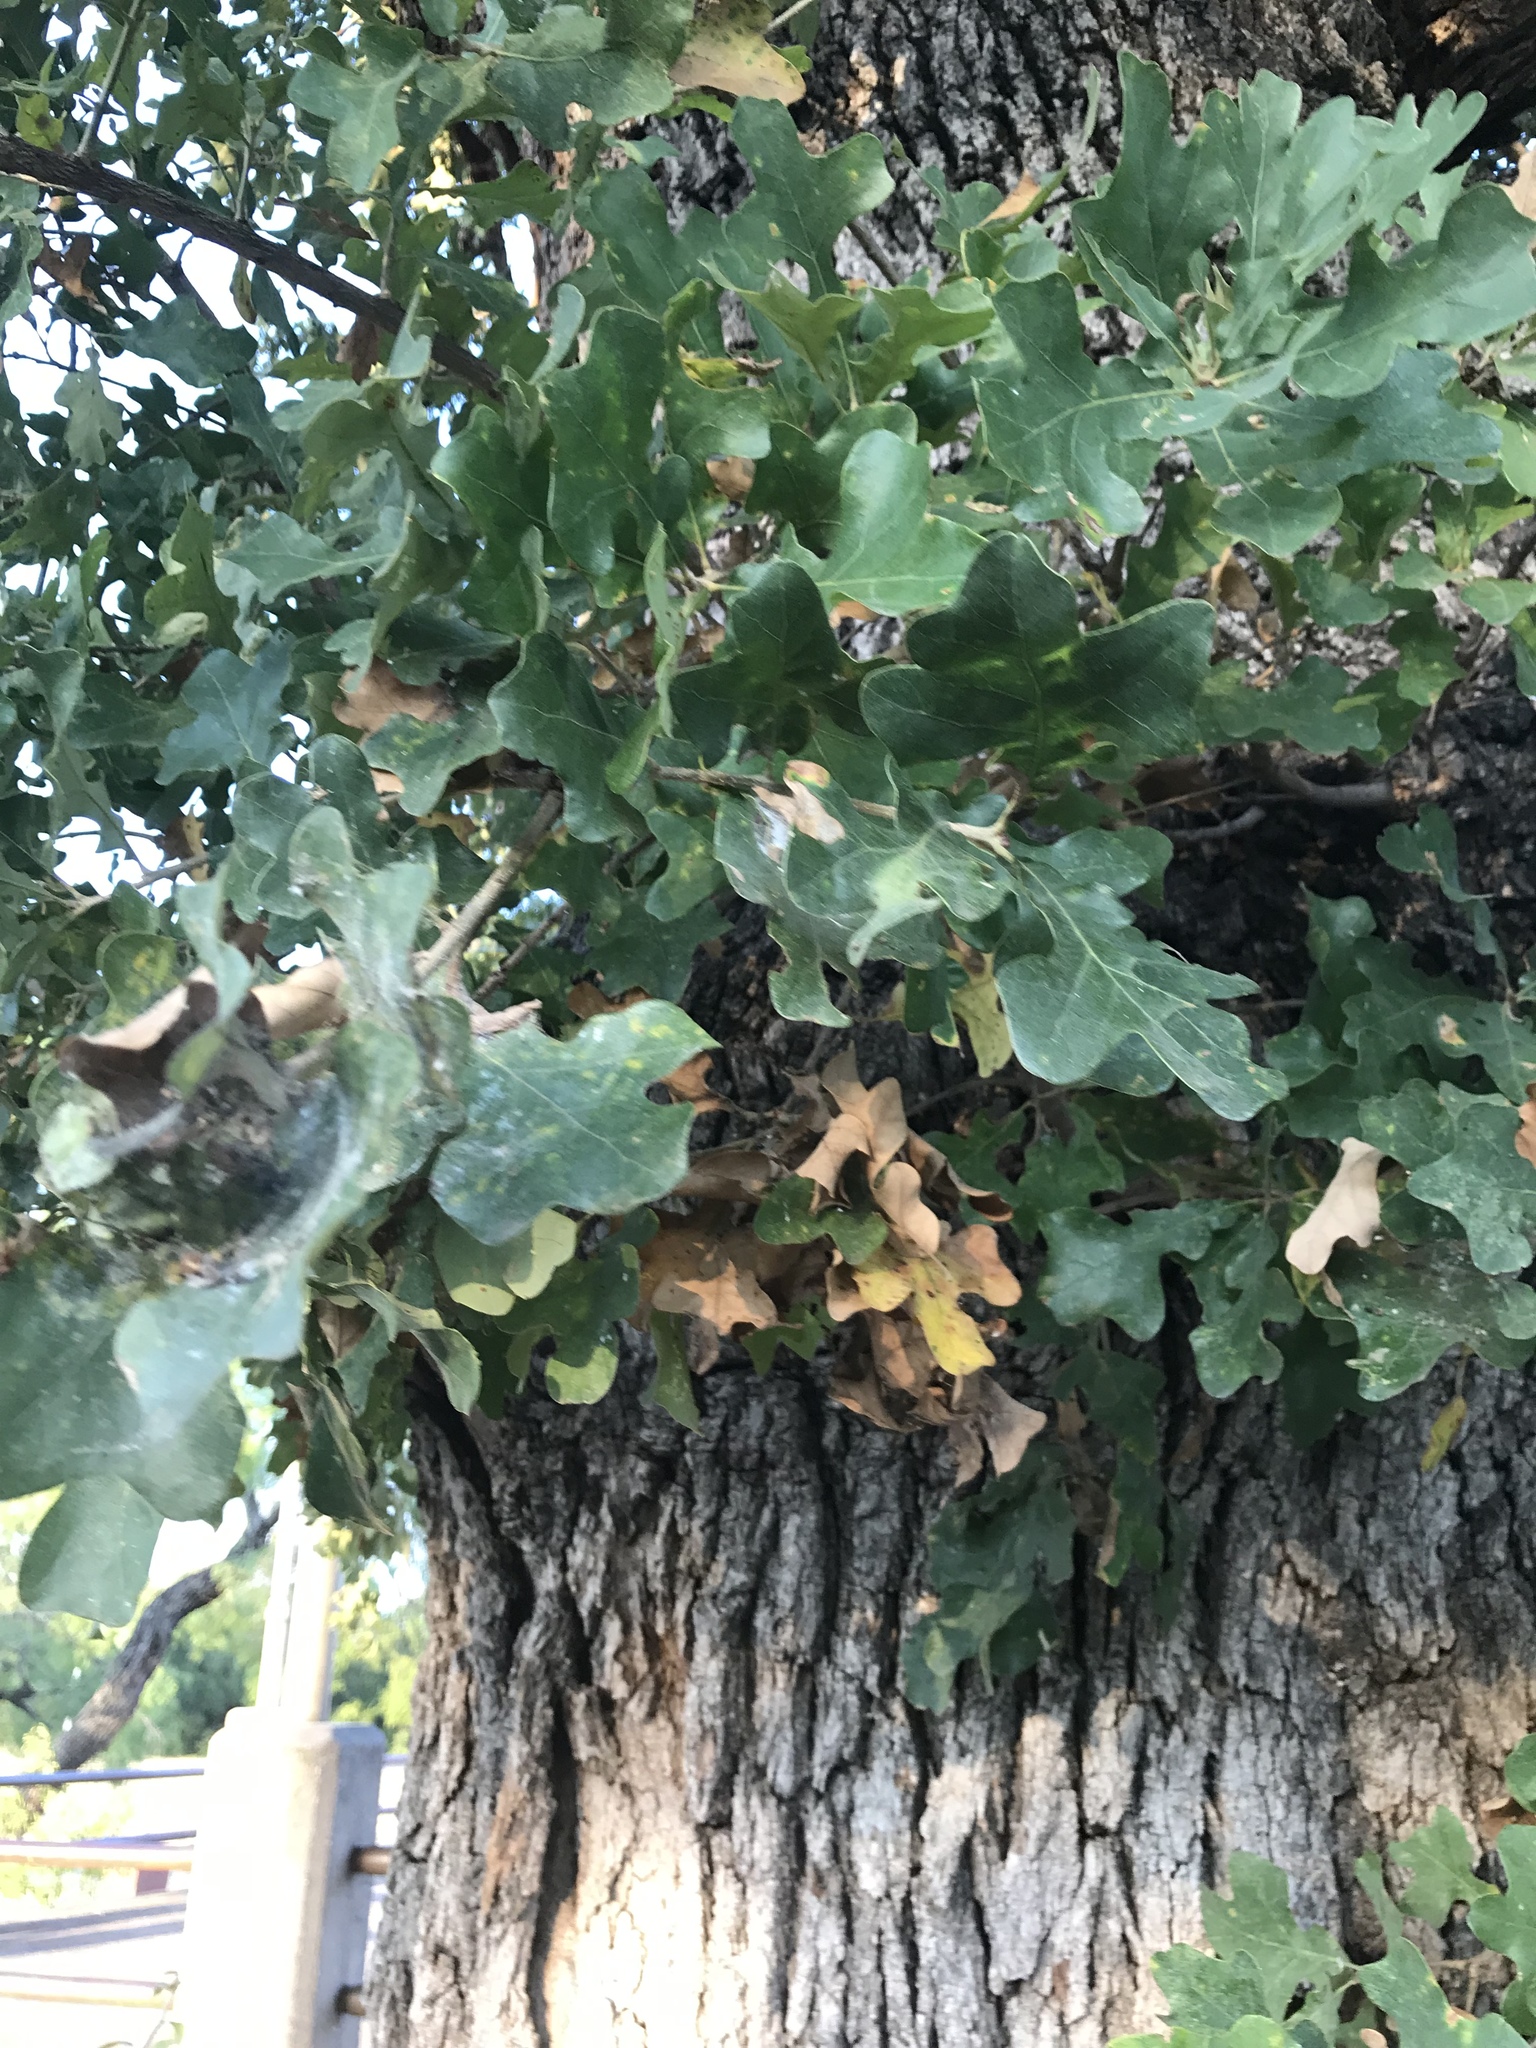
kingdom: Plantae
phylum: Tracheophyta
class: Magnoliopsida
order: Fagales
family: Fagaceae
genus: Quercus
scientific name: Quercus stellata
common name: Post oak
